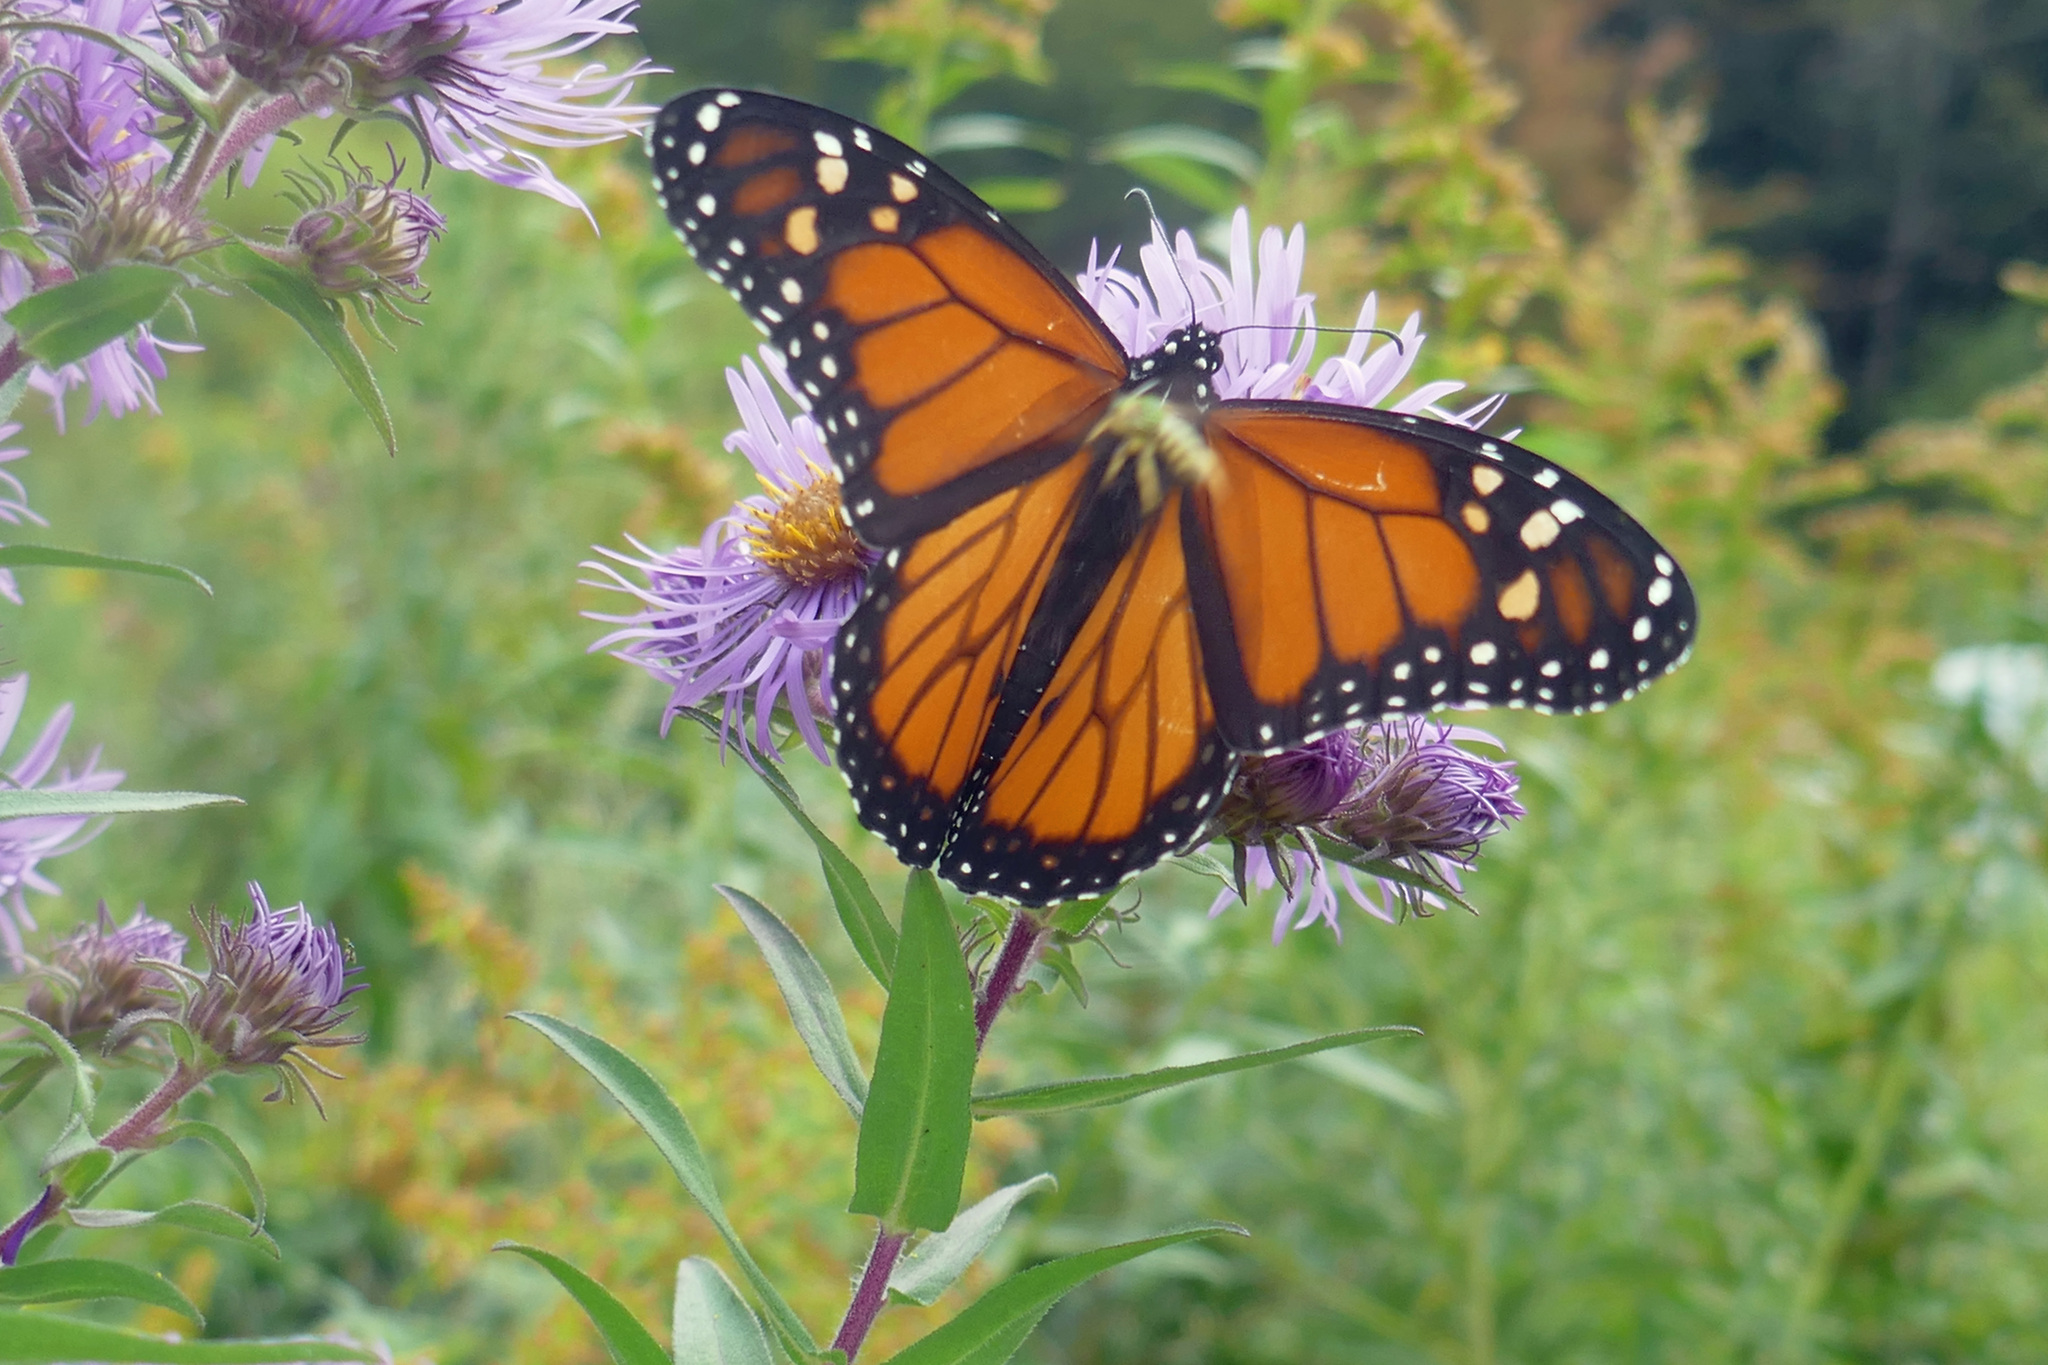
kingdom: Animalia
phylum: Arthropoda
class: Insecta
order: Lepidoptera
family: Nymphalidae
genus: Danaus
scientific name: Danaus plexippus
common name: Monarch
